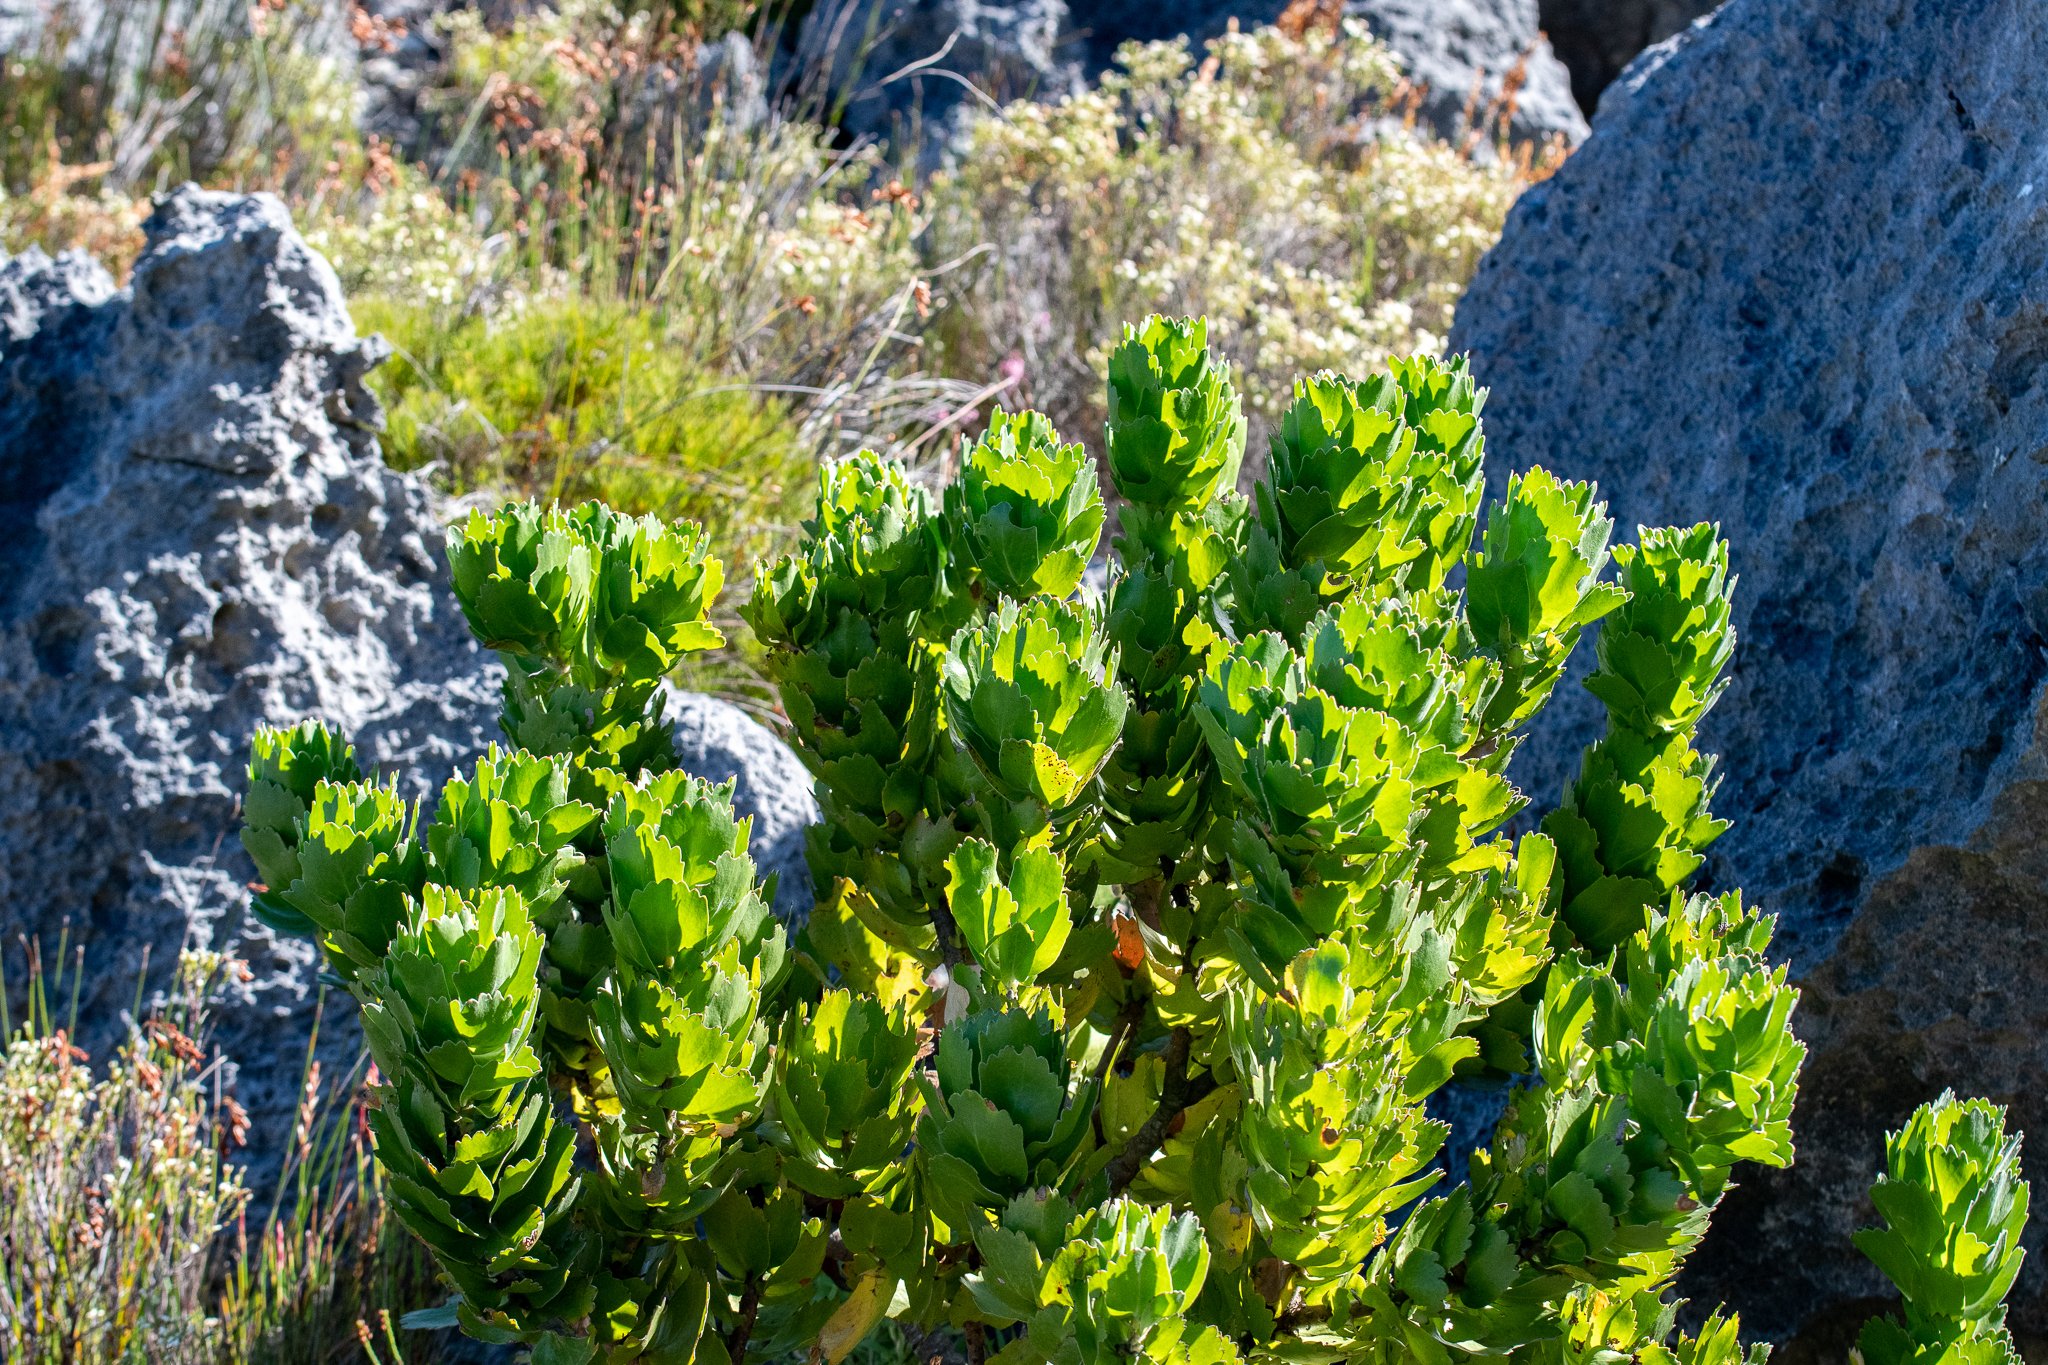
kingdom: Plantae
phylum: Tracheophyta
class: Magnoliopsida
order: Proteales
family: Proteaceae
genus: Leucospermum
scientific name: Leucospermum patersonii
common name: False tree pincushion
